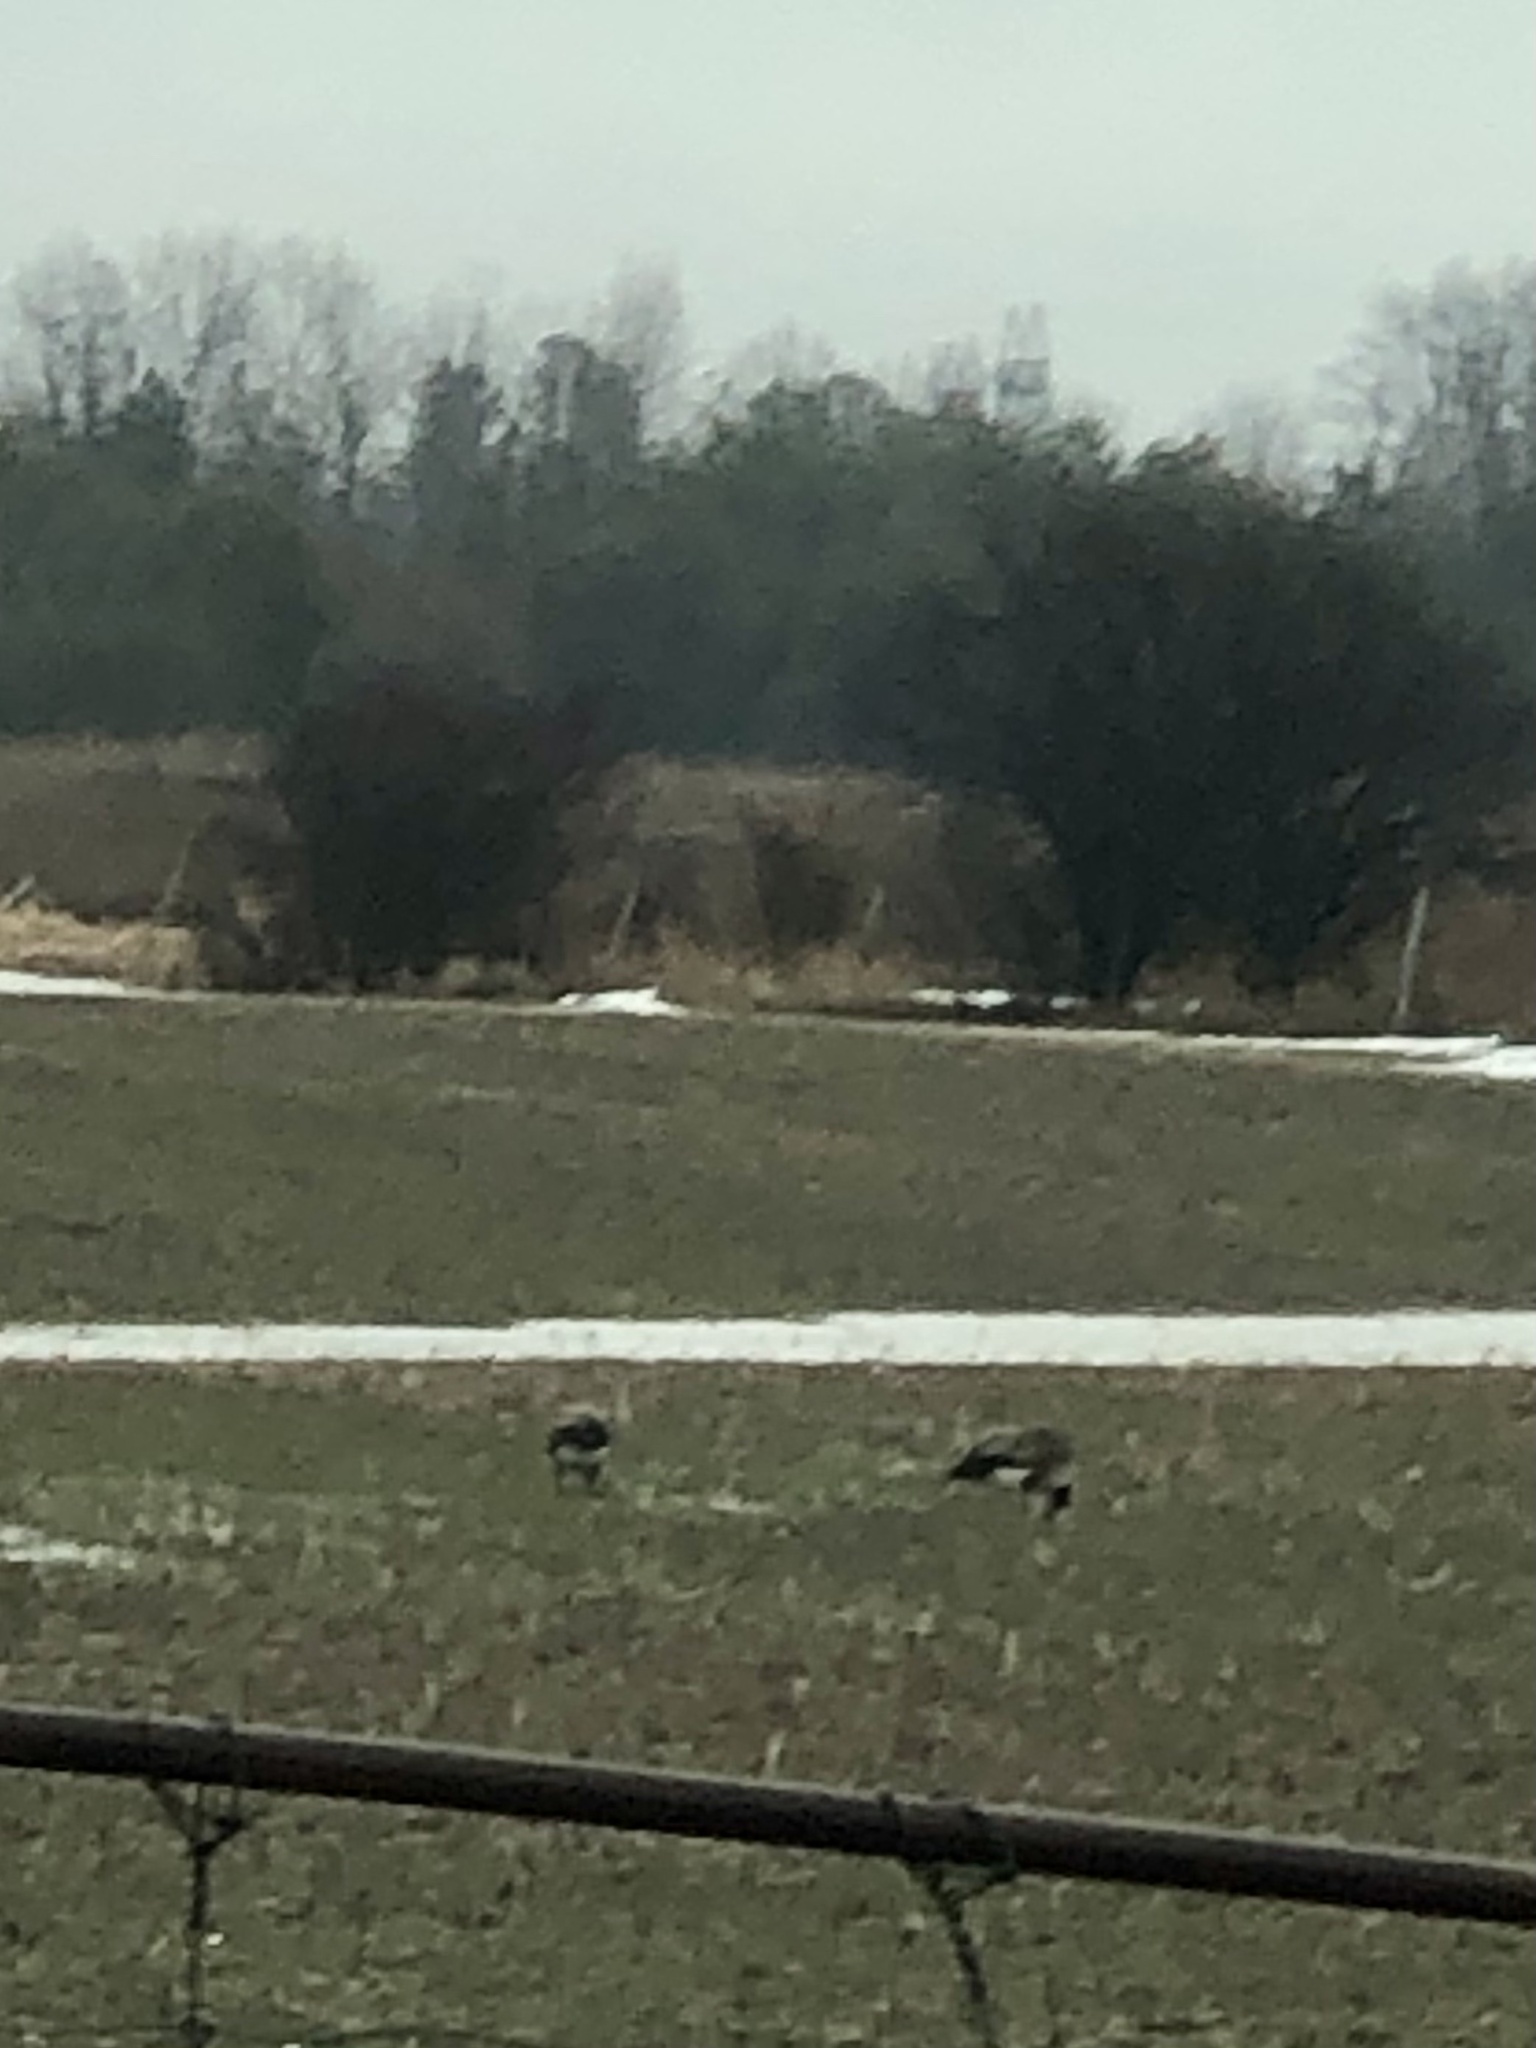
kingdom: Animalia
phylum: Chordata
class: Aves
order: Anseriformes
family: Anatidae
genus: Branta
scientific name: Branta canadensis
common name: Canada goose
